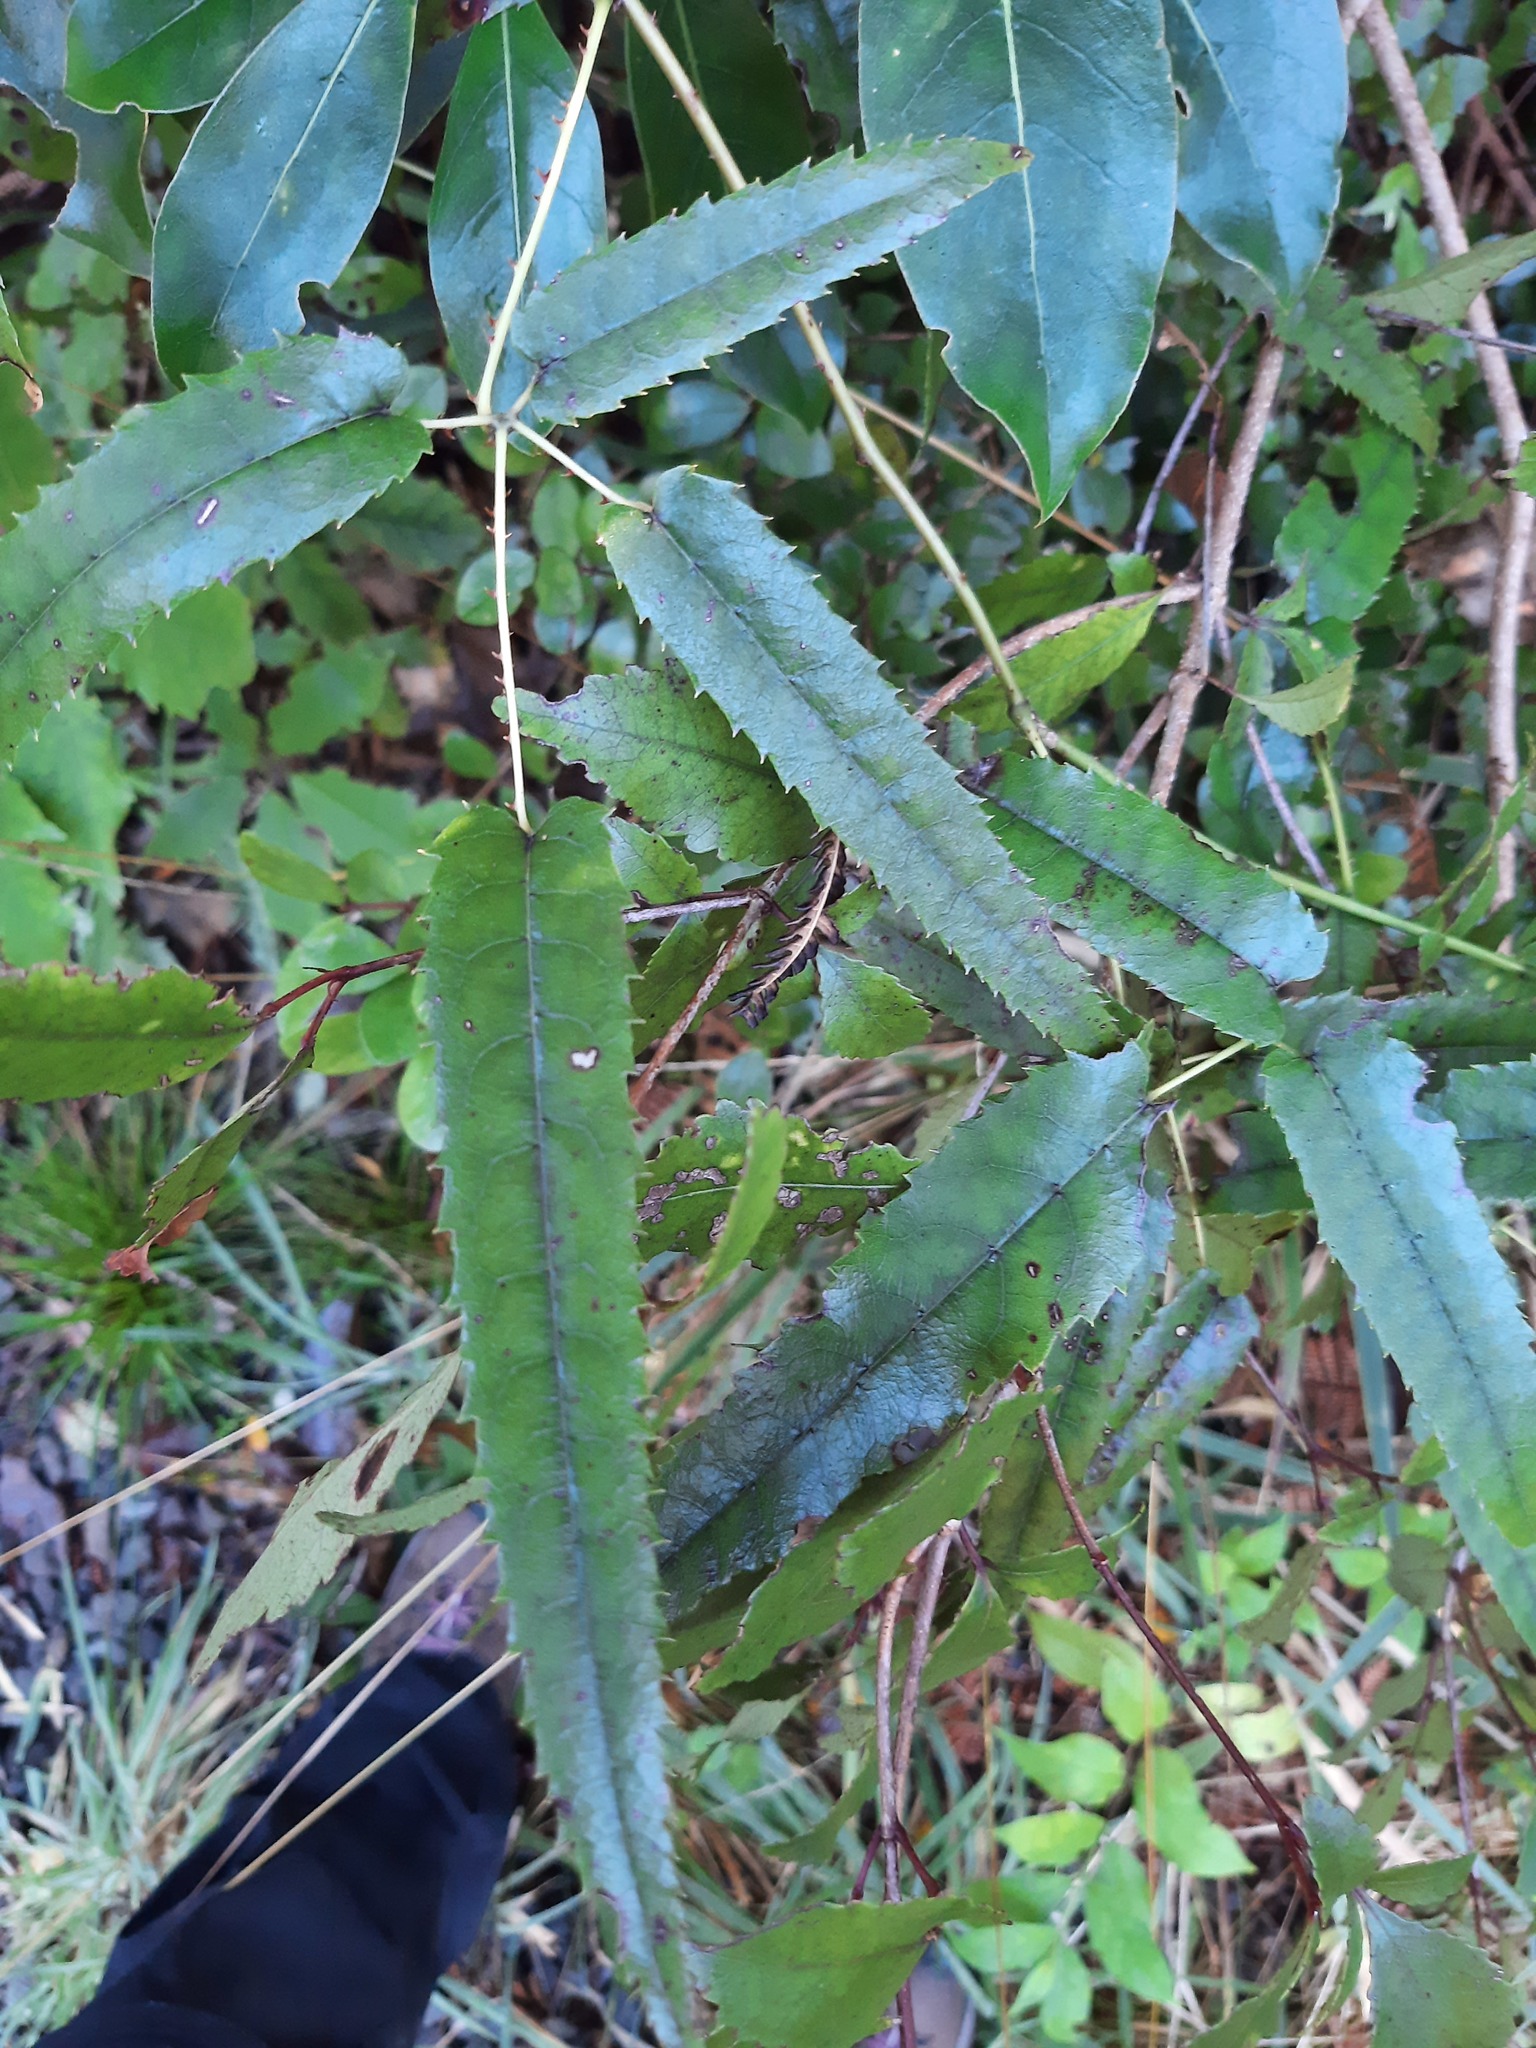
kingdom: Plantae
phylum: Tracheophyta
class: Magnoliopsida
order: Rosales
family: Rosaceae
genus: Rubus
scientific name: Rubus cissoides
